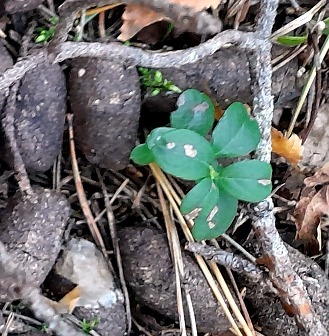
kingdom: Plantae
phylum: Tracheophyta
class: Magnoliopsida
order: Ericales
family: Ericaceae
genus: Vaccinium
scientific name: Vaccinium vitis-idaea
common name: Cowberry
